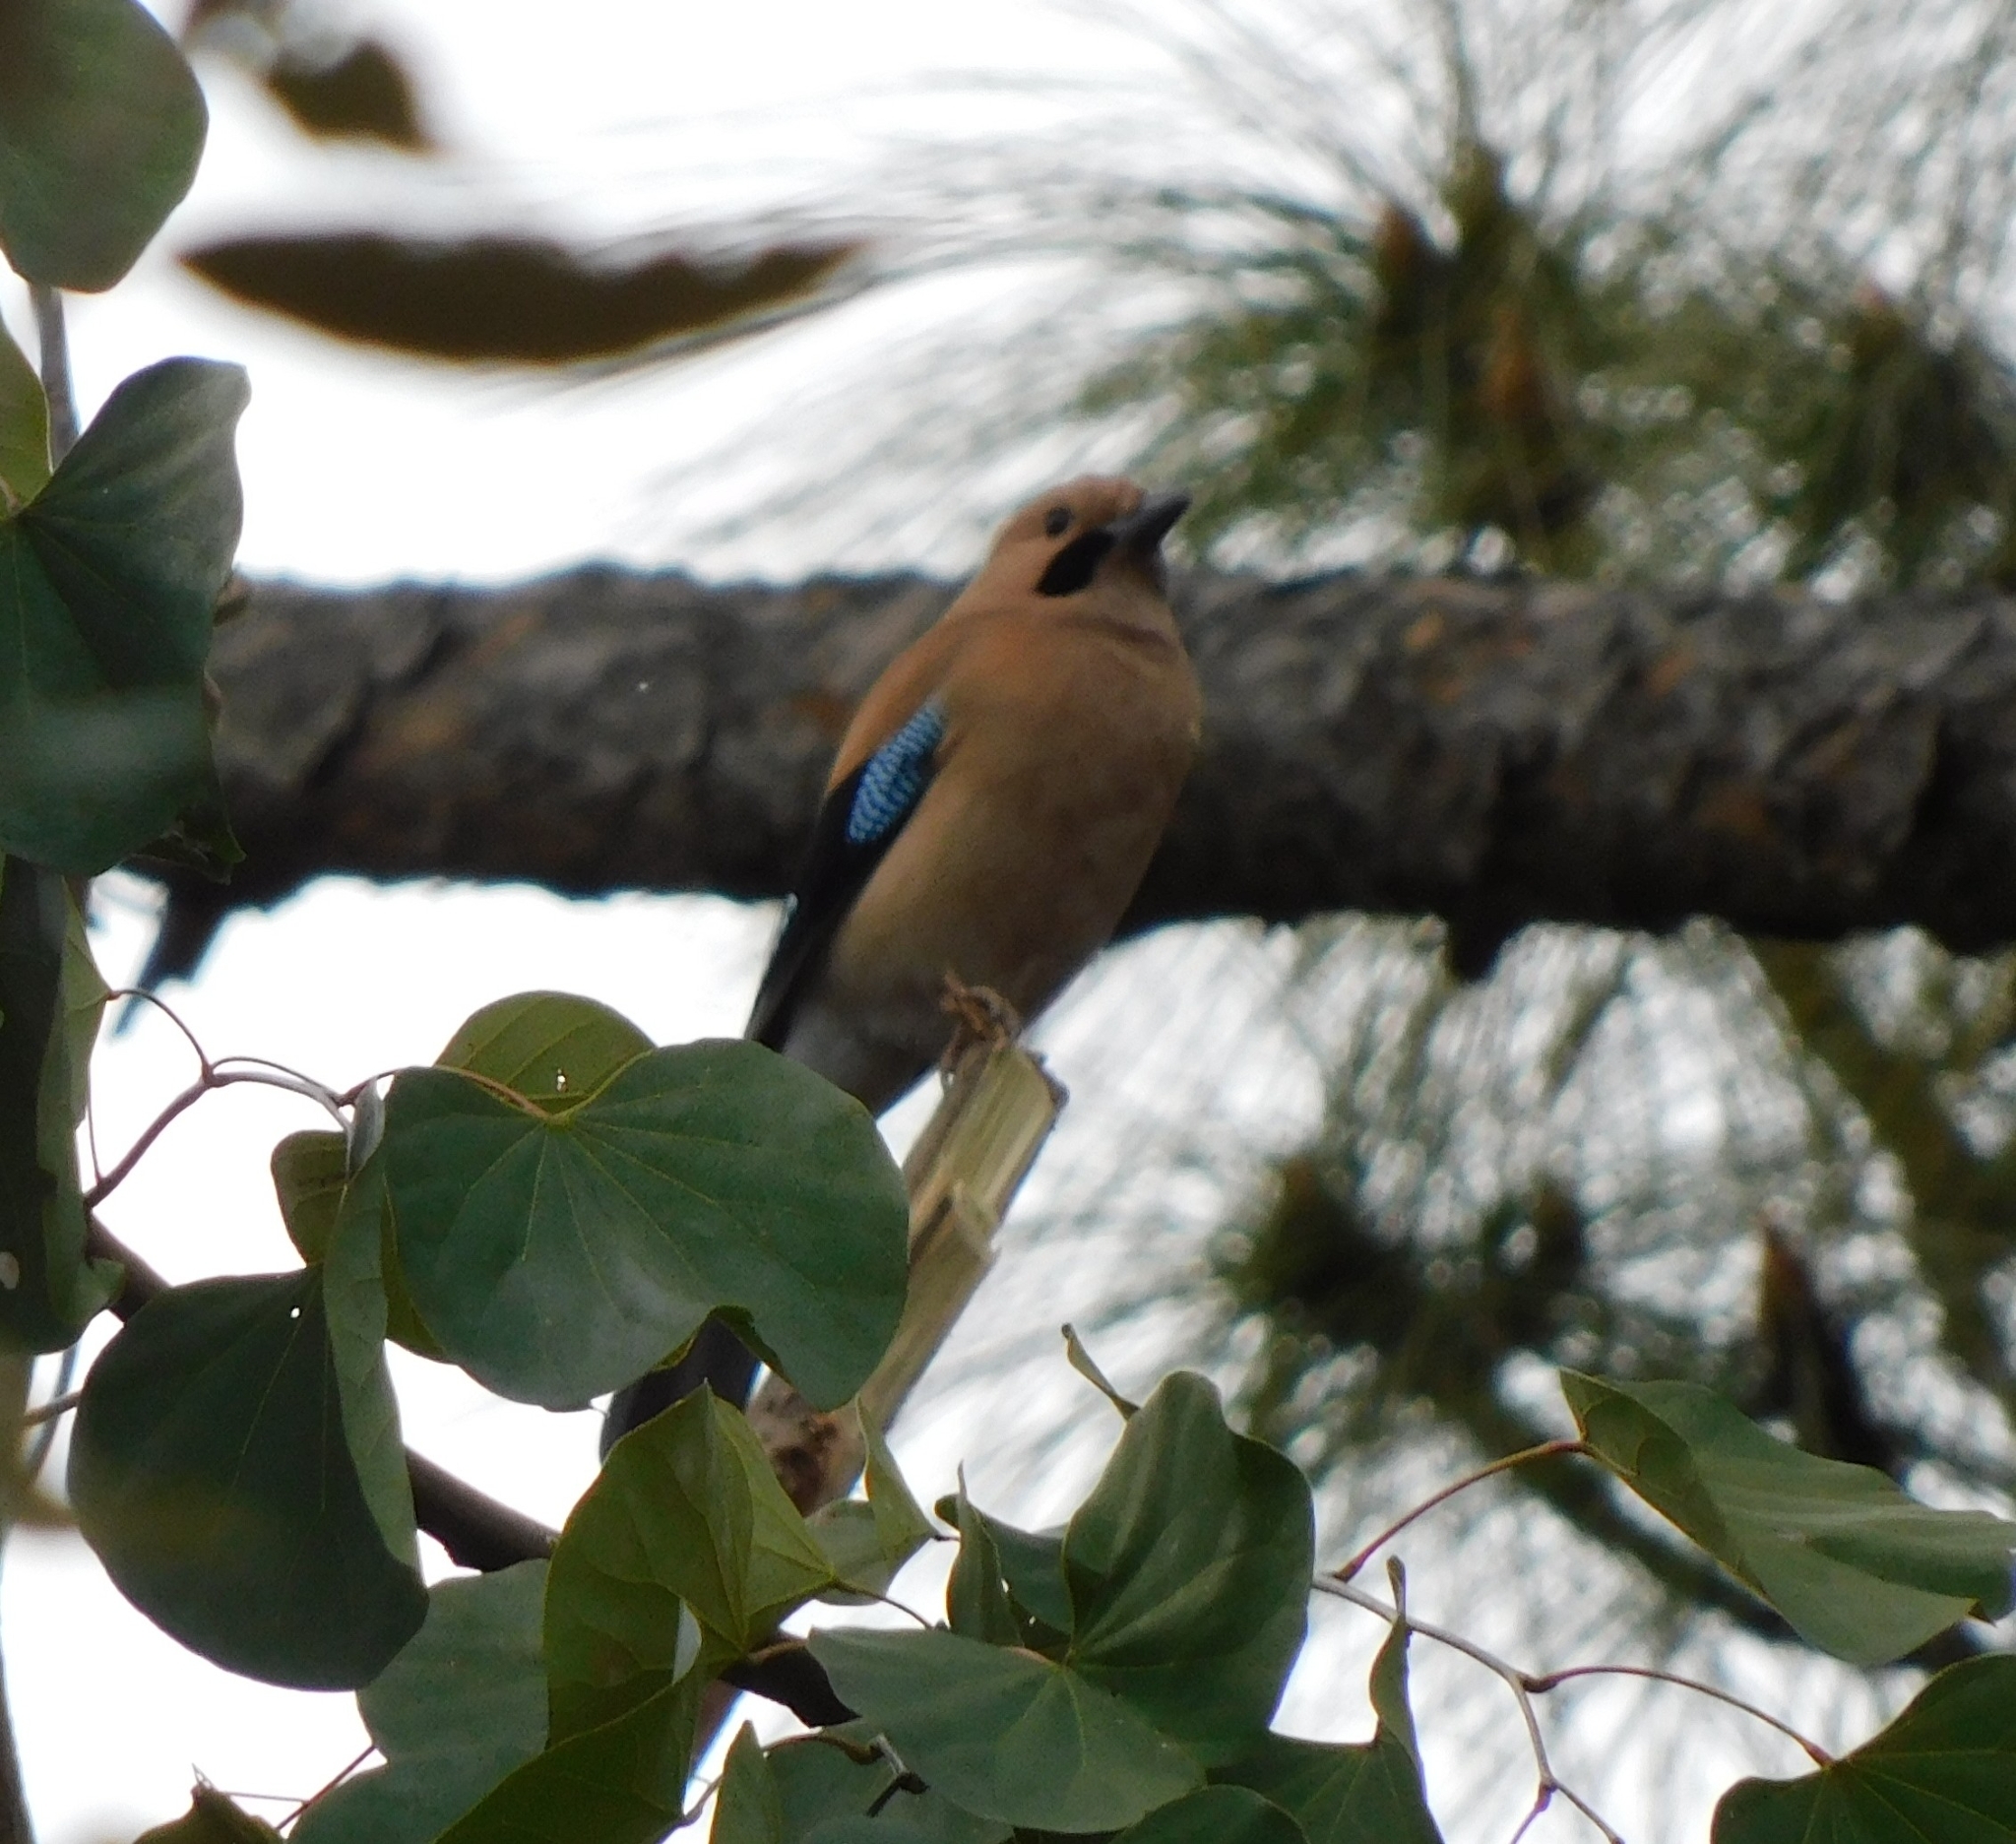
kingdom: Animalia
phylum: Chordata
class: Aves
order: Passeriformes
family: Corvidae
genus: Garrulus
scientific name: Garrulus glandarius
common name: Eurasian jay
